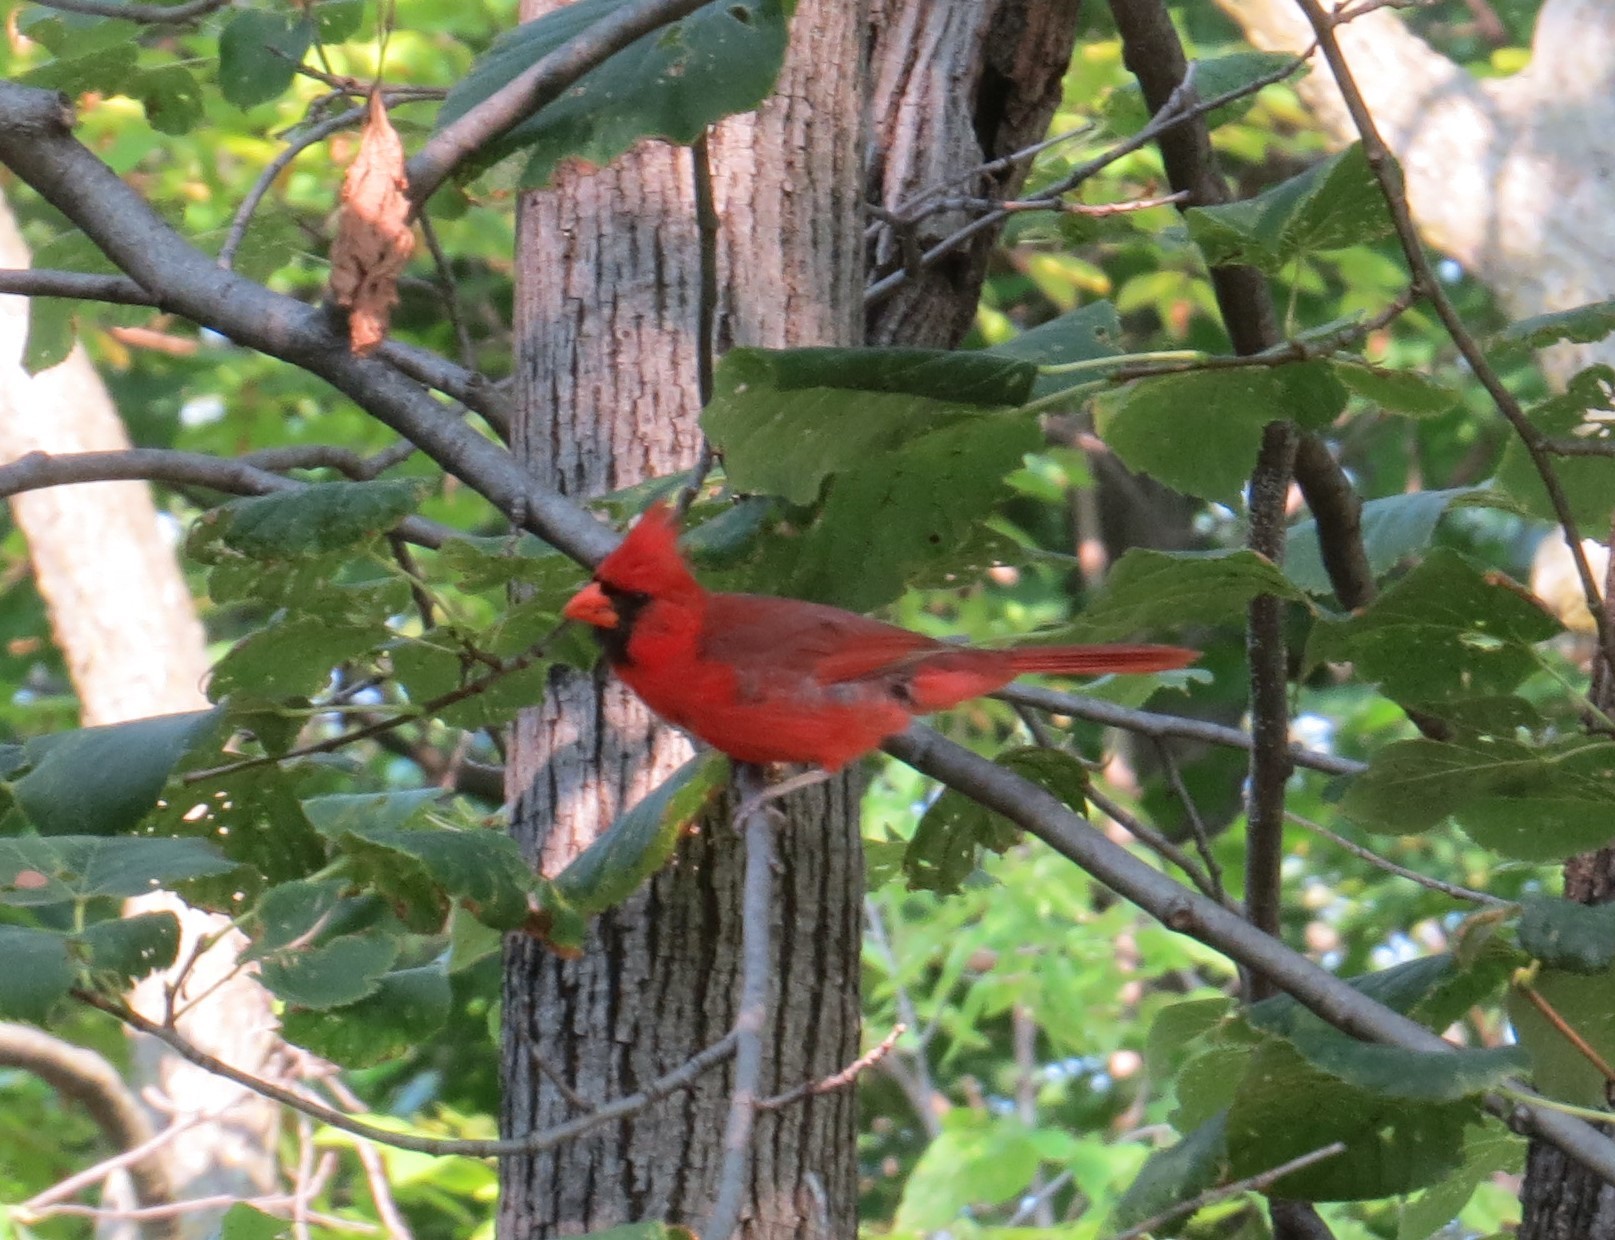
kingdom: Animalia
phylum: Chordata
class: Aves
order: Passeriformes
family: Cardinalidae
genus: Cardinalis
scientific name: Cardinalis cardinalis
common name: Northern cardinal
